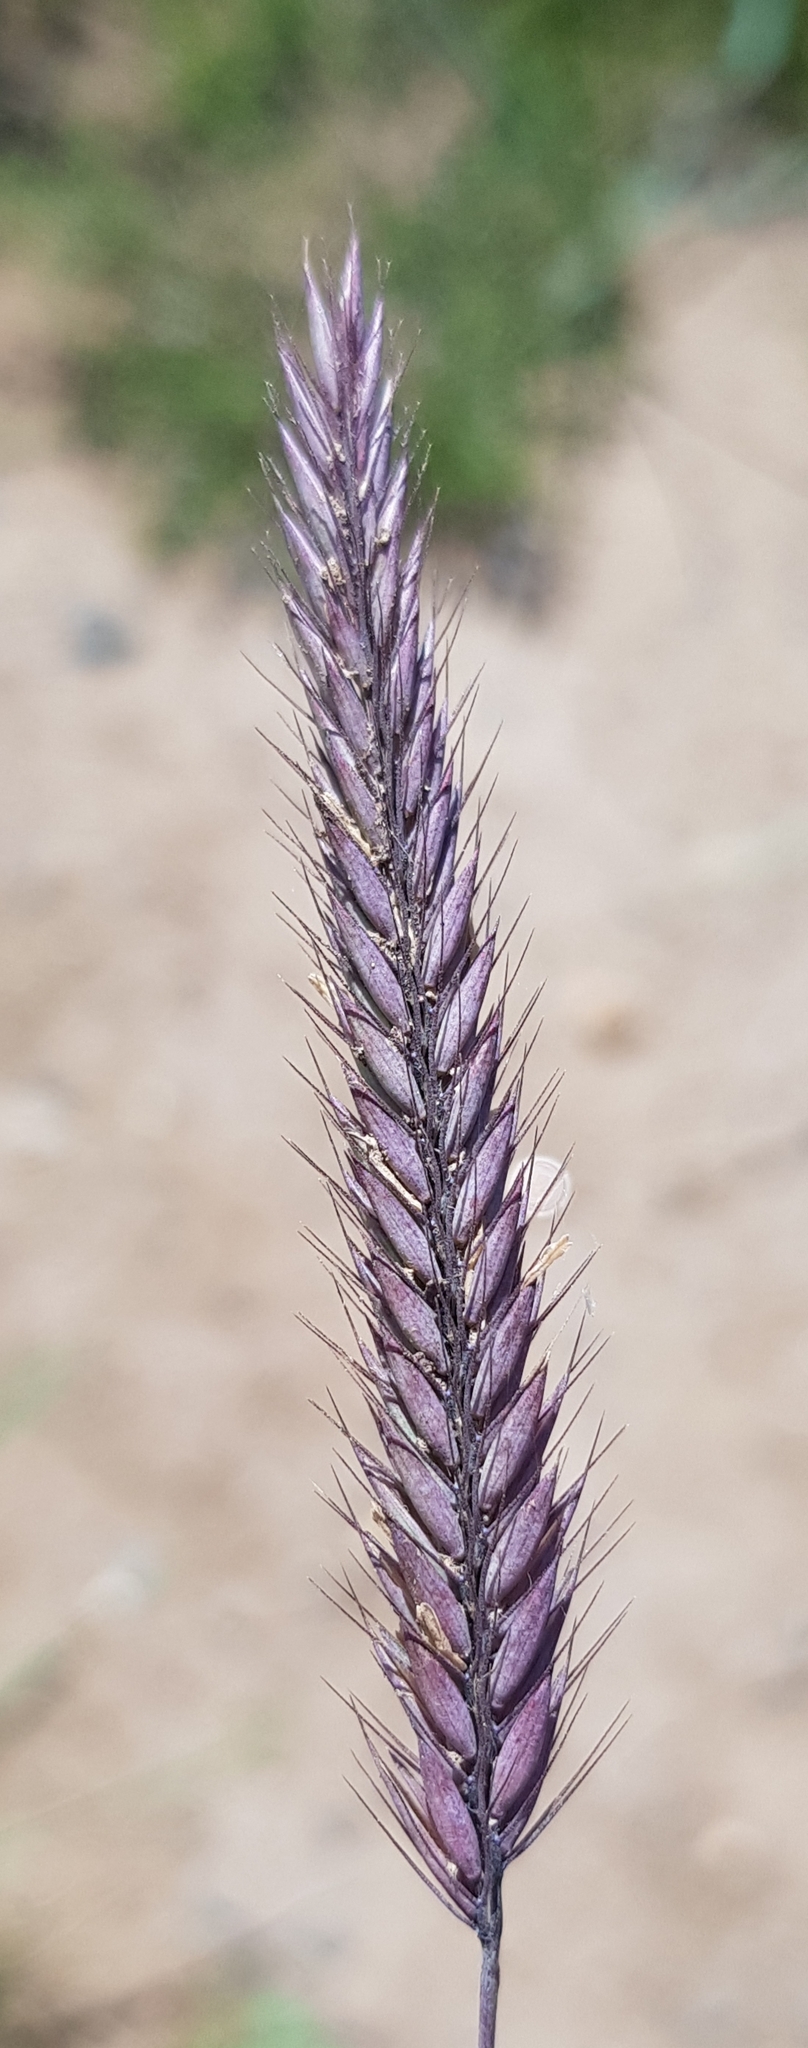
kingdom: Plantae
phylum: Tracheophyta
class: Liliopsida
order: Poales
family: Poaceae
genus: Hordeum
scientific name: Hordeum brevisubulatum
